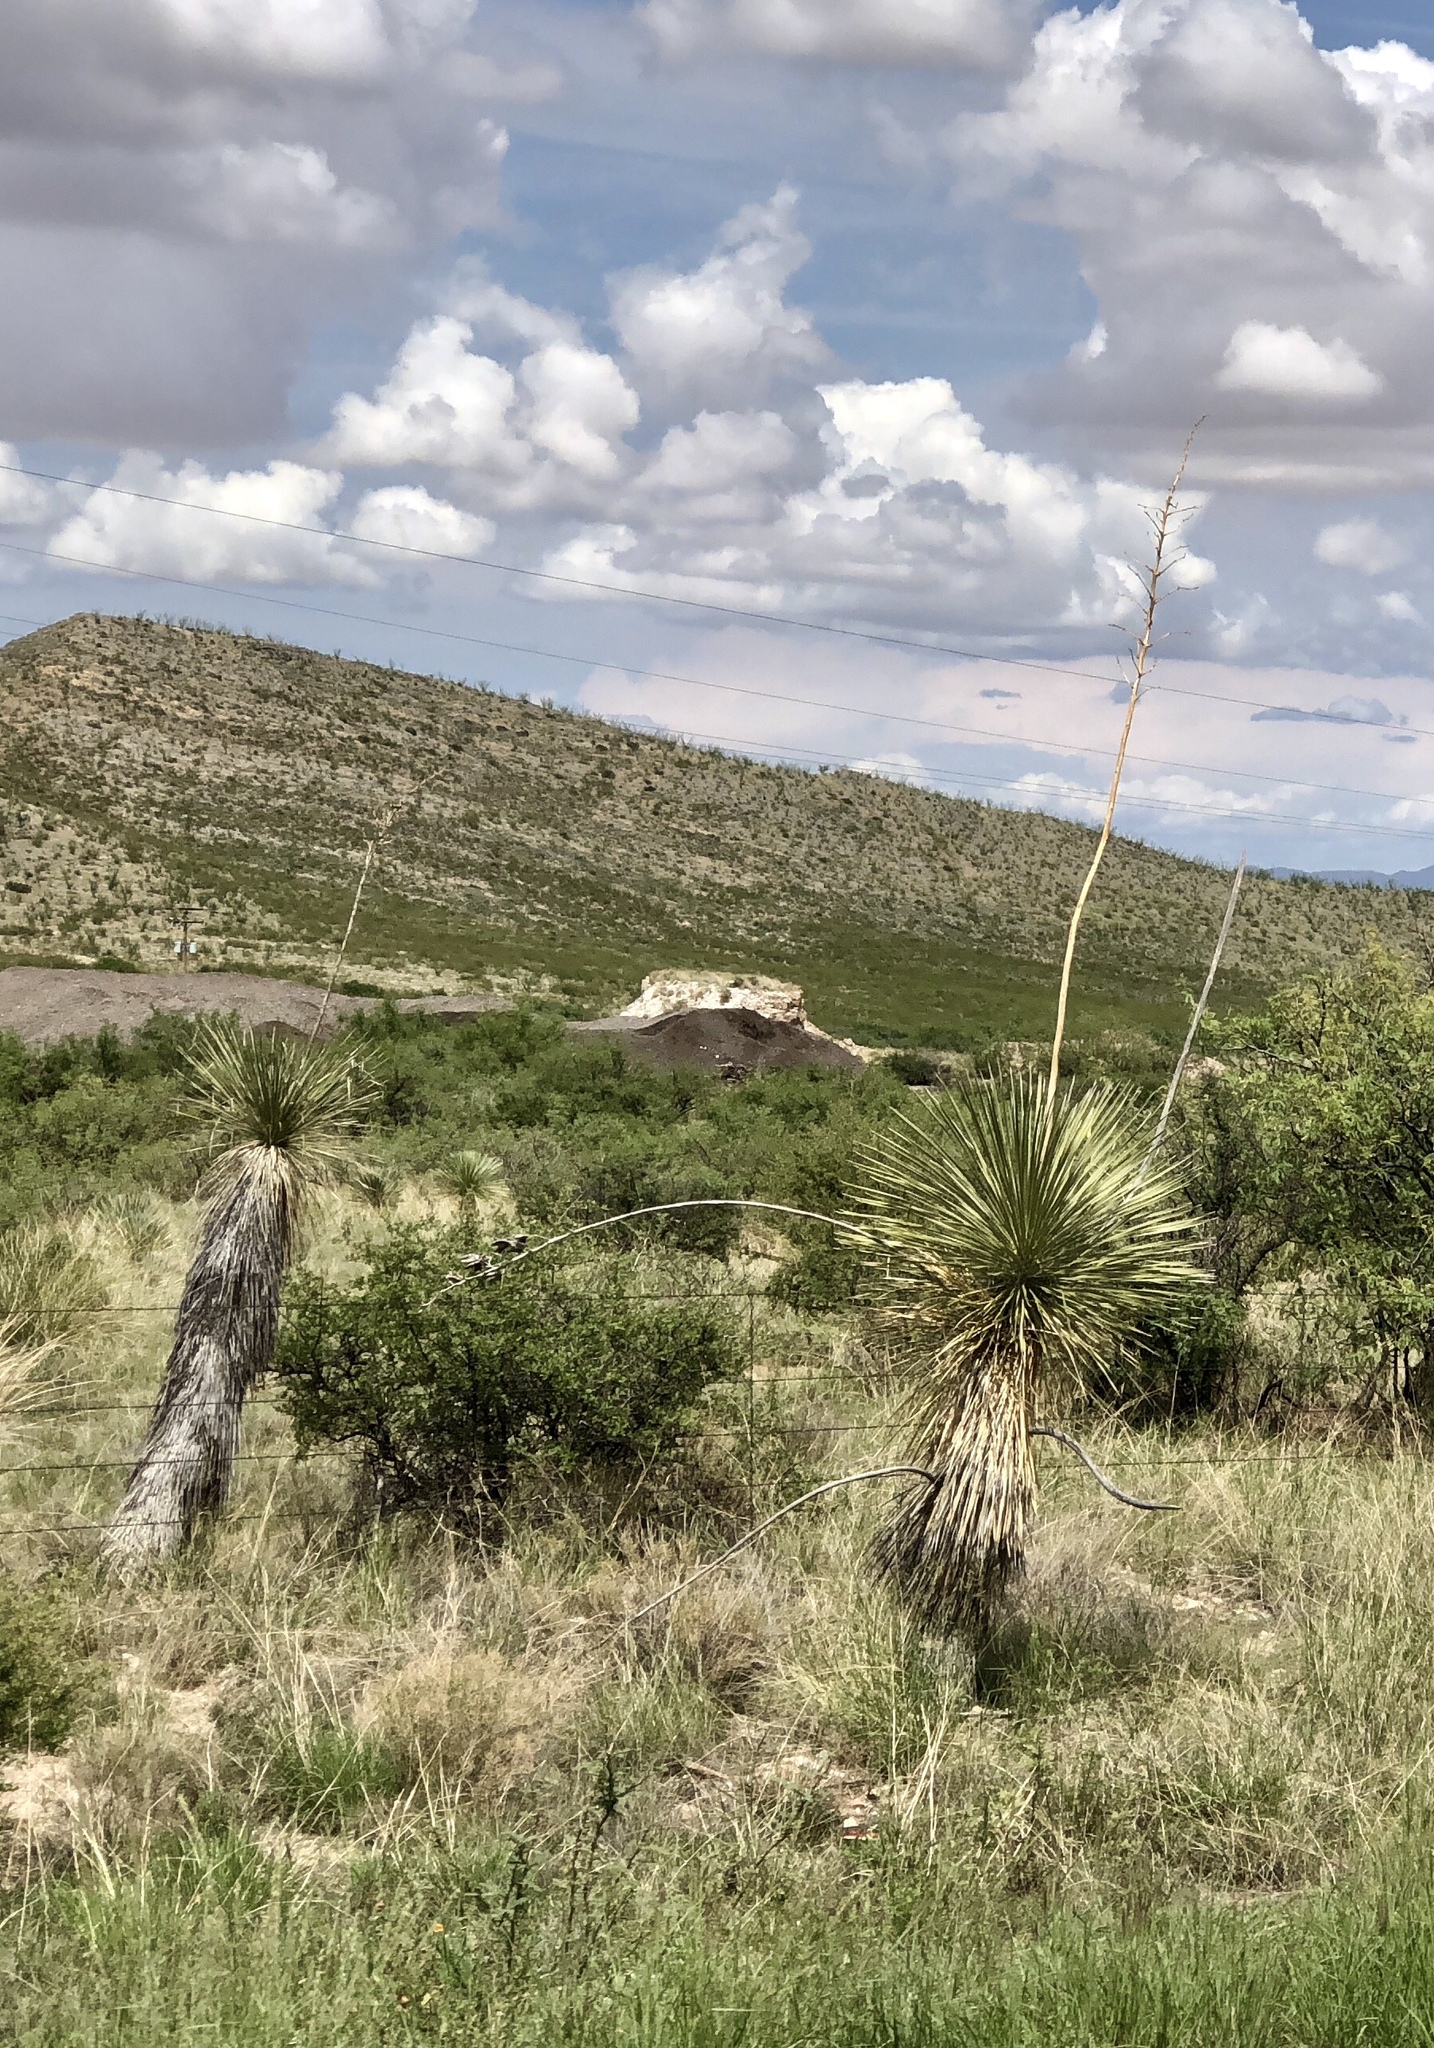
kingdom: Plantae
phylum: Tracheophyta
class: Liliopsida
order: Asparagales
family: Asparagaceae
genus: Yucca
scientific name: Yucca elata
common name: Palmella
